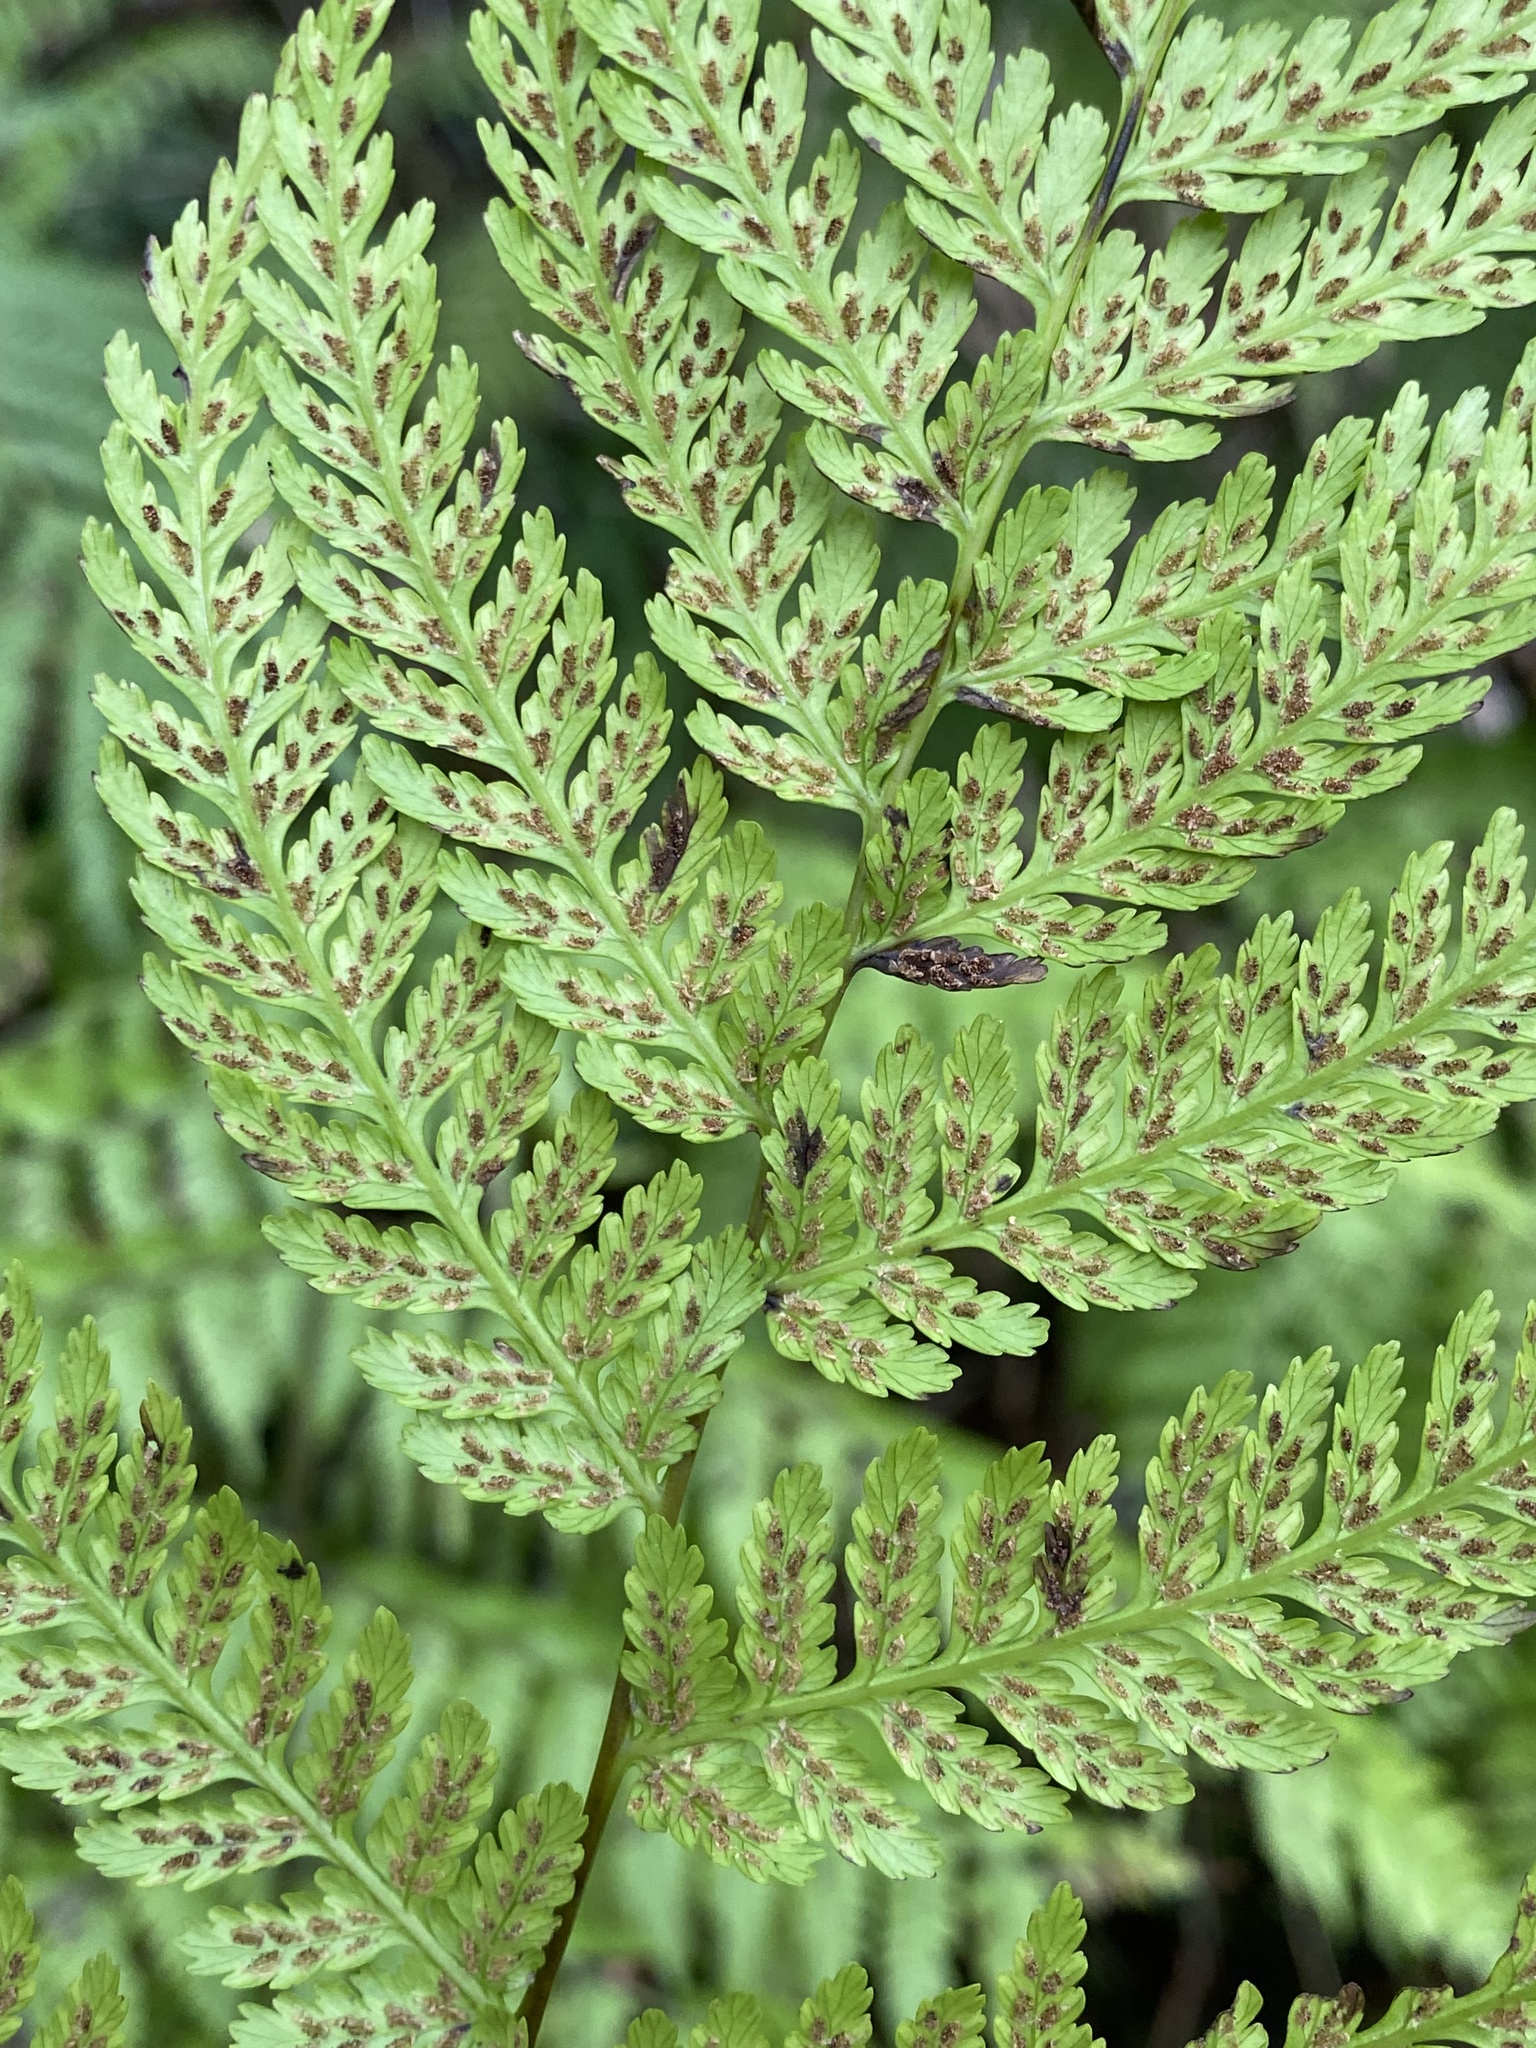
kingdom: Plantae
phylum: Tracheophyta
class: Polypodiopsida
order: Polypodiales
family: Athyriaceae
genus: Diplazium
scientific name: Diplazium caudatum
